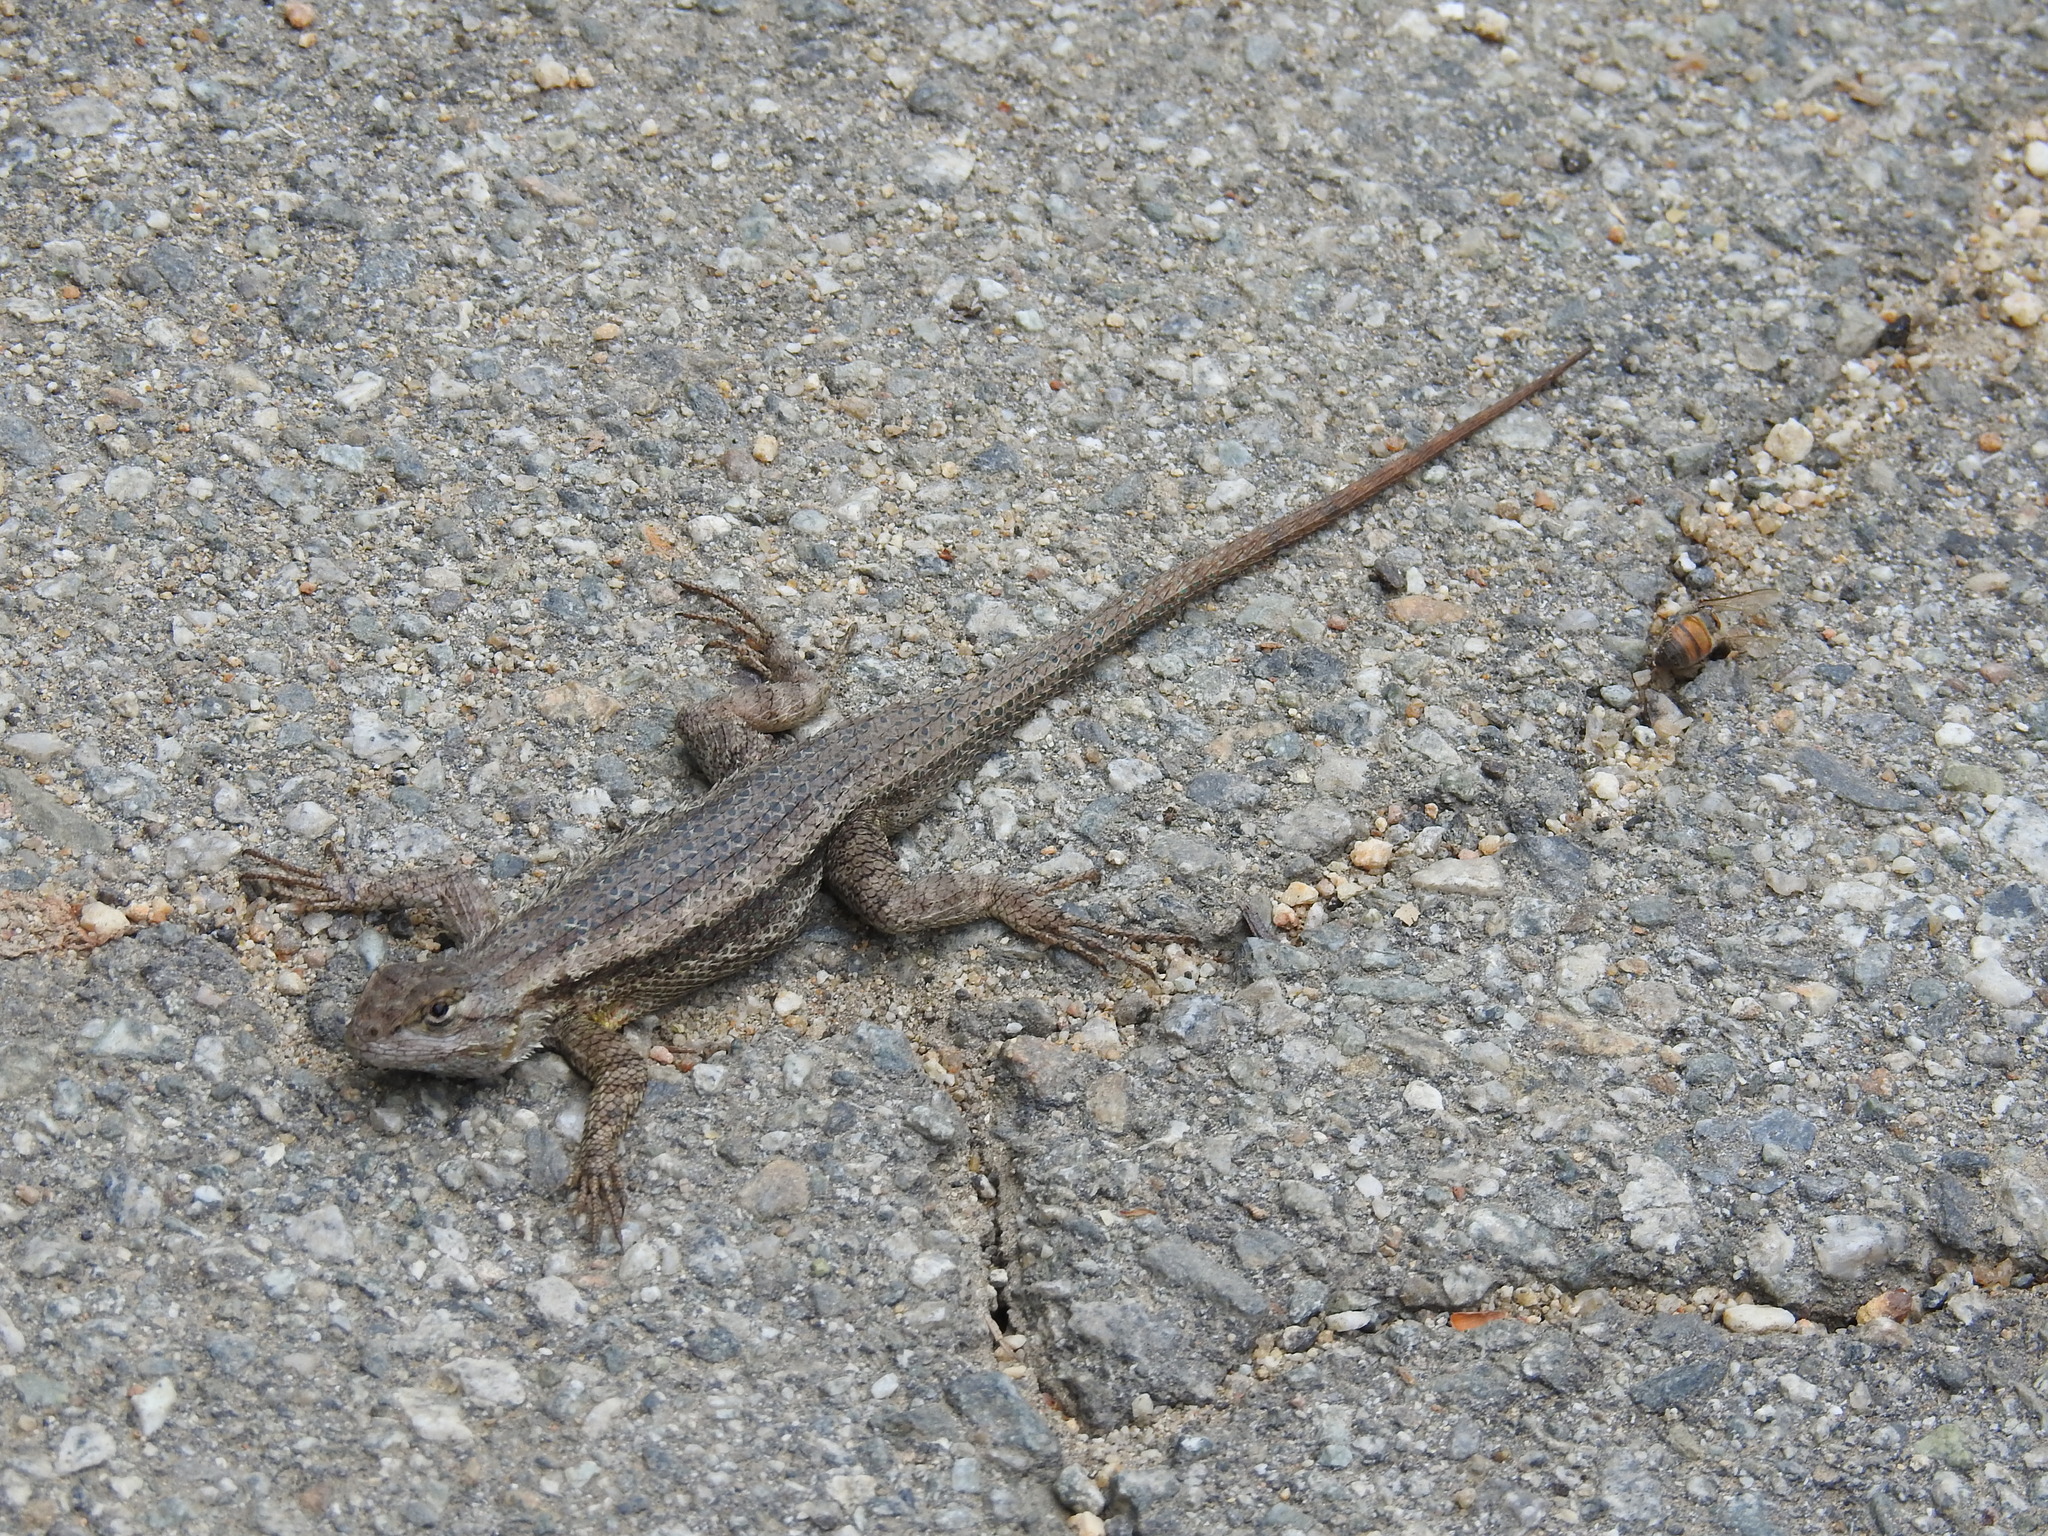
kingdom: Animalia
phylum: Chordata
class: Squamata
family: Phrynosomatidae
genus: Sceloporus
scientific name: Sceloporus occidentalis
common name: Western fence lizard
